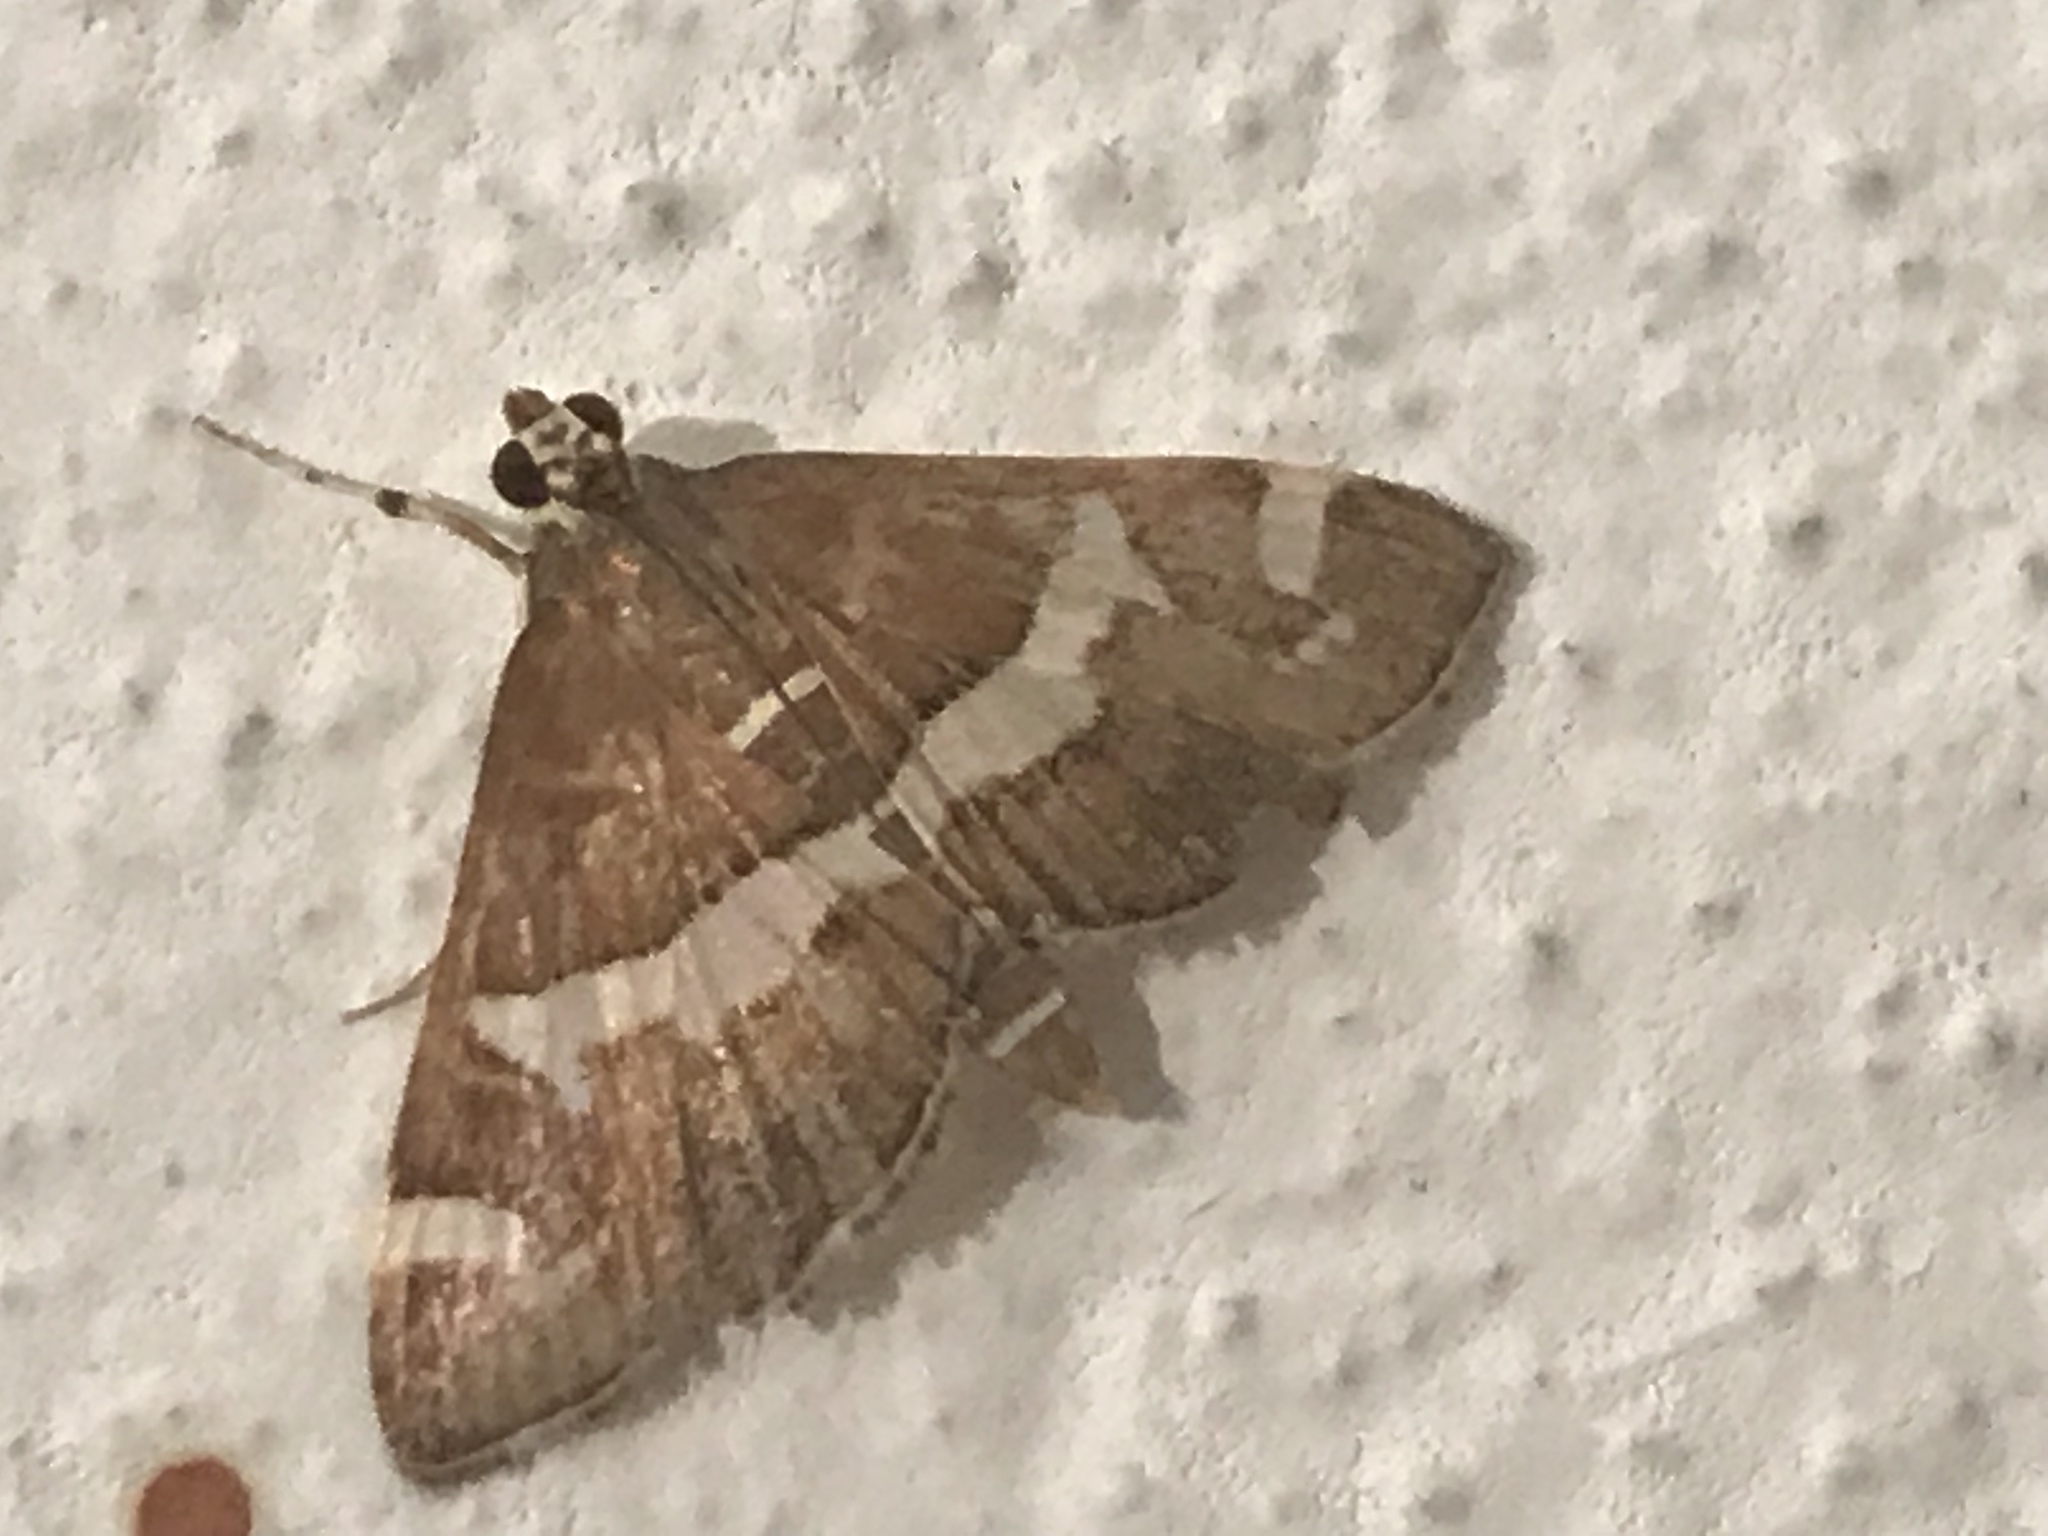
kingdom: Animalia
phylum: Arthropoda
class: Insecta
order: Lepidoptera
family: Crambidae
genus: Spoladea
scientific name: Spoladea recurvalis
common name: Beet webworm moth
